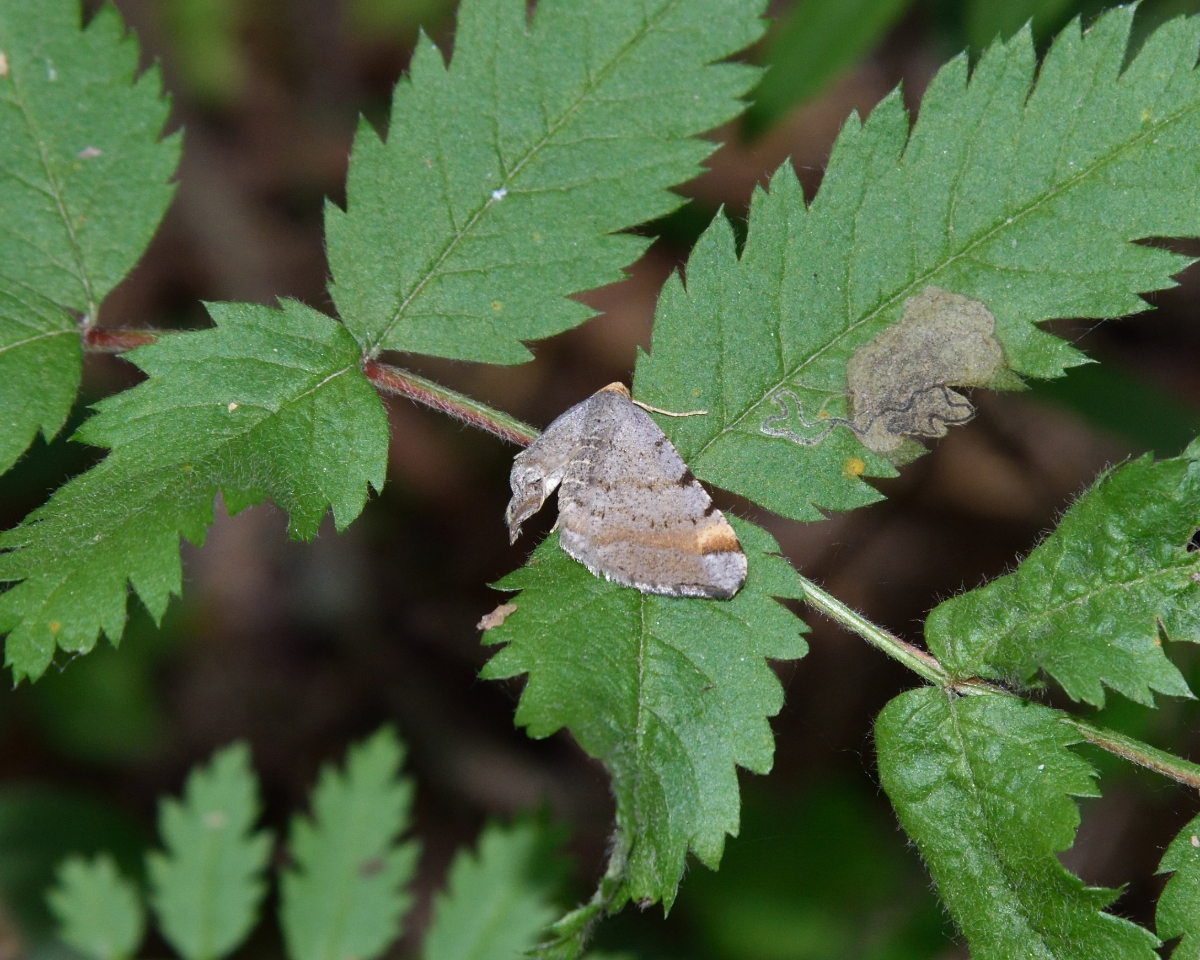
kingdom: Animalia
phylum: Arthropoda
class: Insecta
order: Lepidoptera
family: Geometridae
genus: Macaria
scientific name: Macaria liturata
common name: Tawny-barred angle
